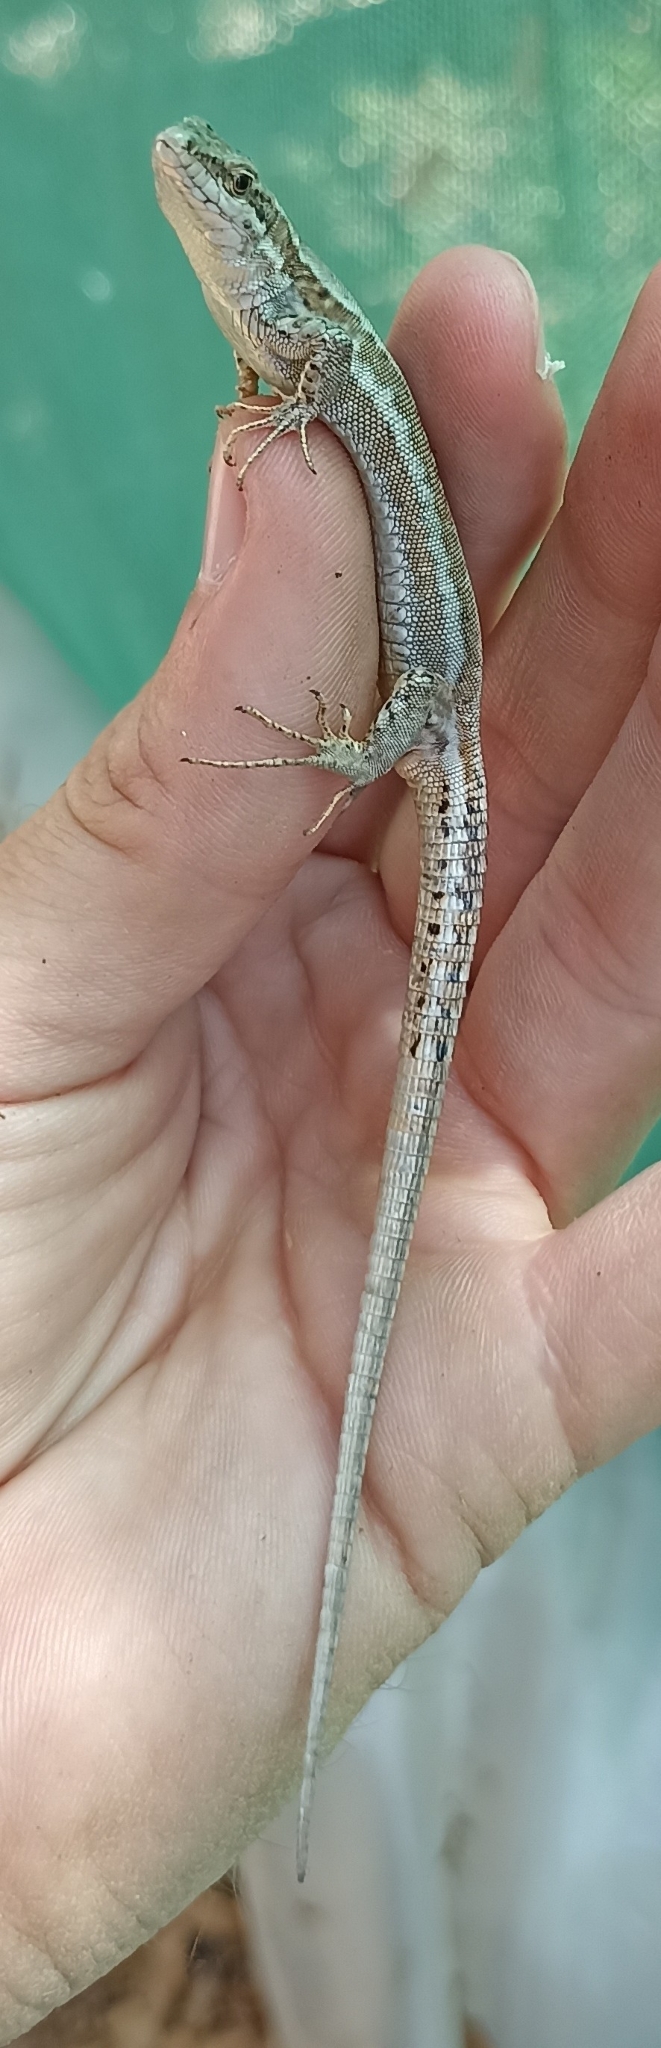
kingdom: Animalia
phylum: Chordata
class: Squamata
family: Lacertidae
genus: Podarcis
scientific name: Podarcis muralis
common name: Common wall lizard
